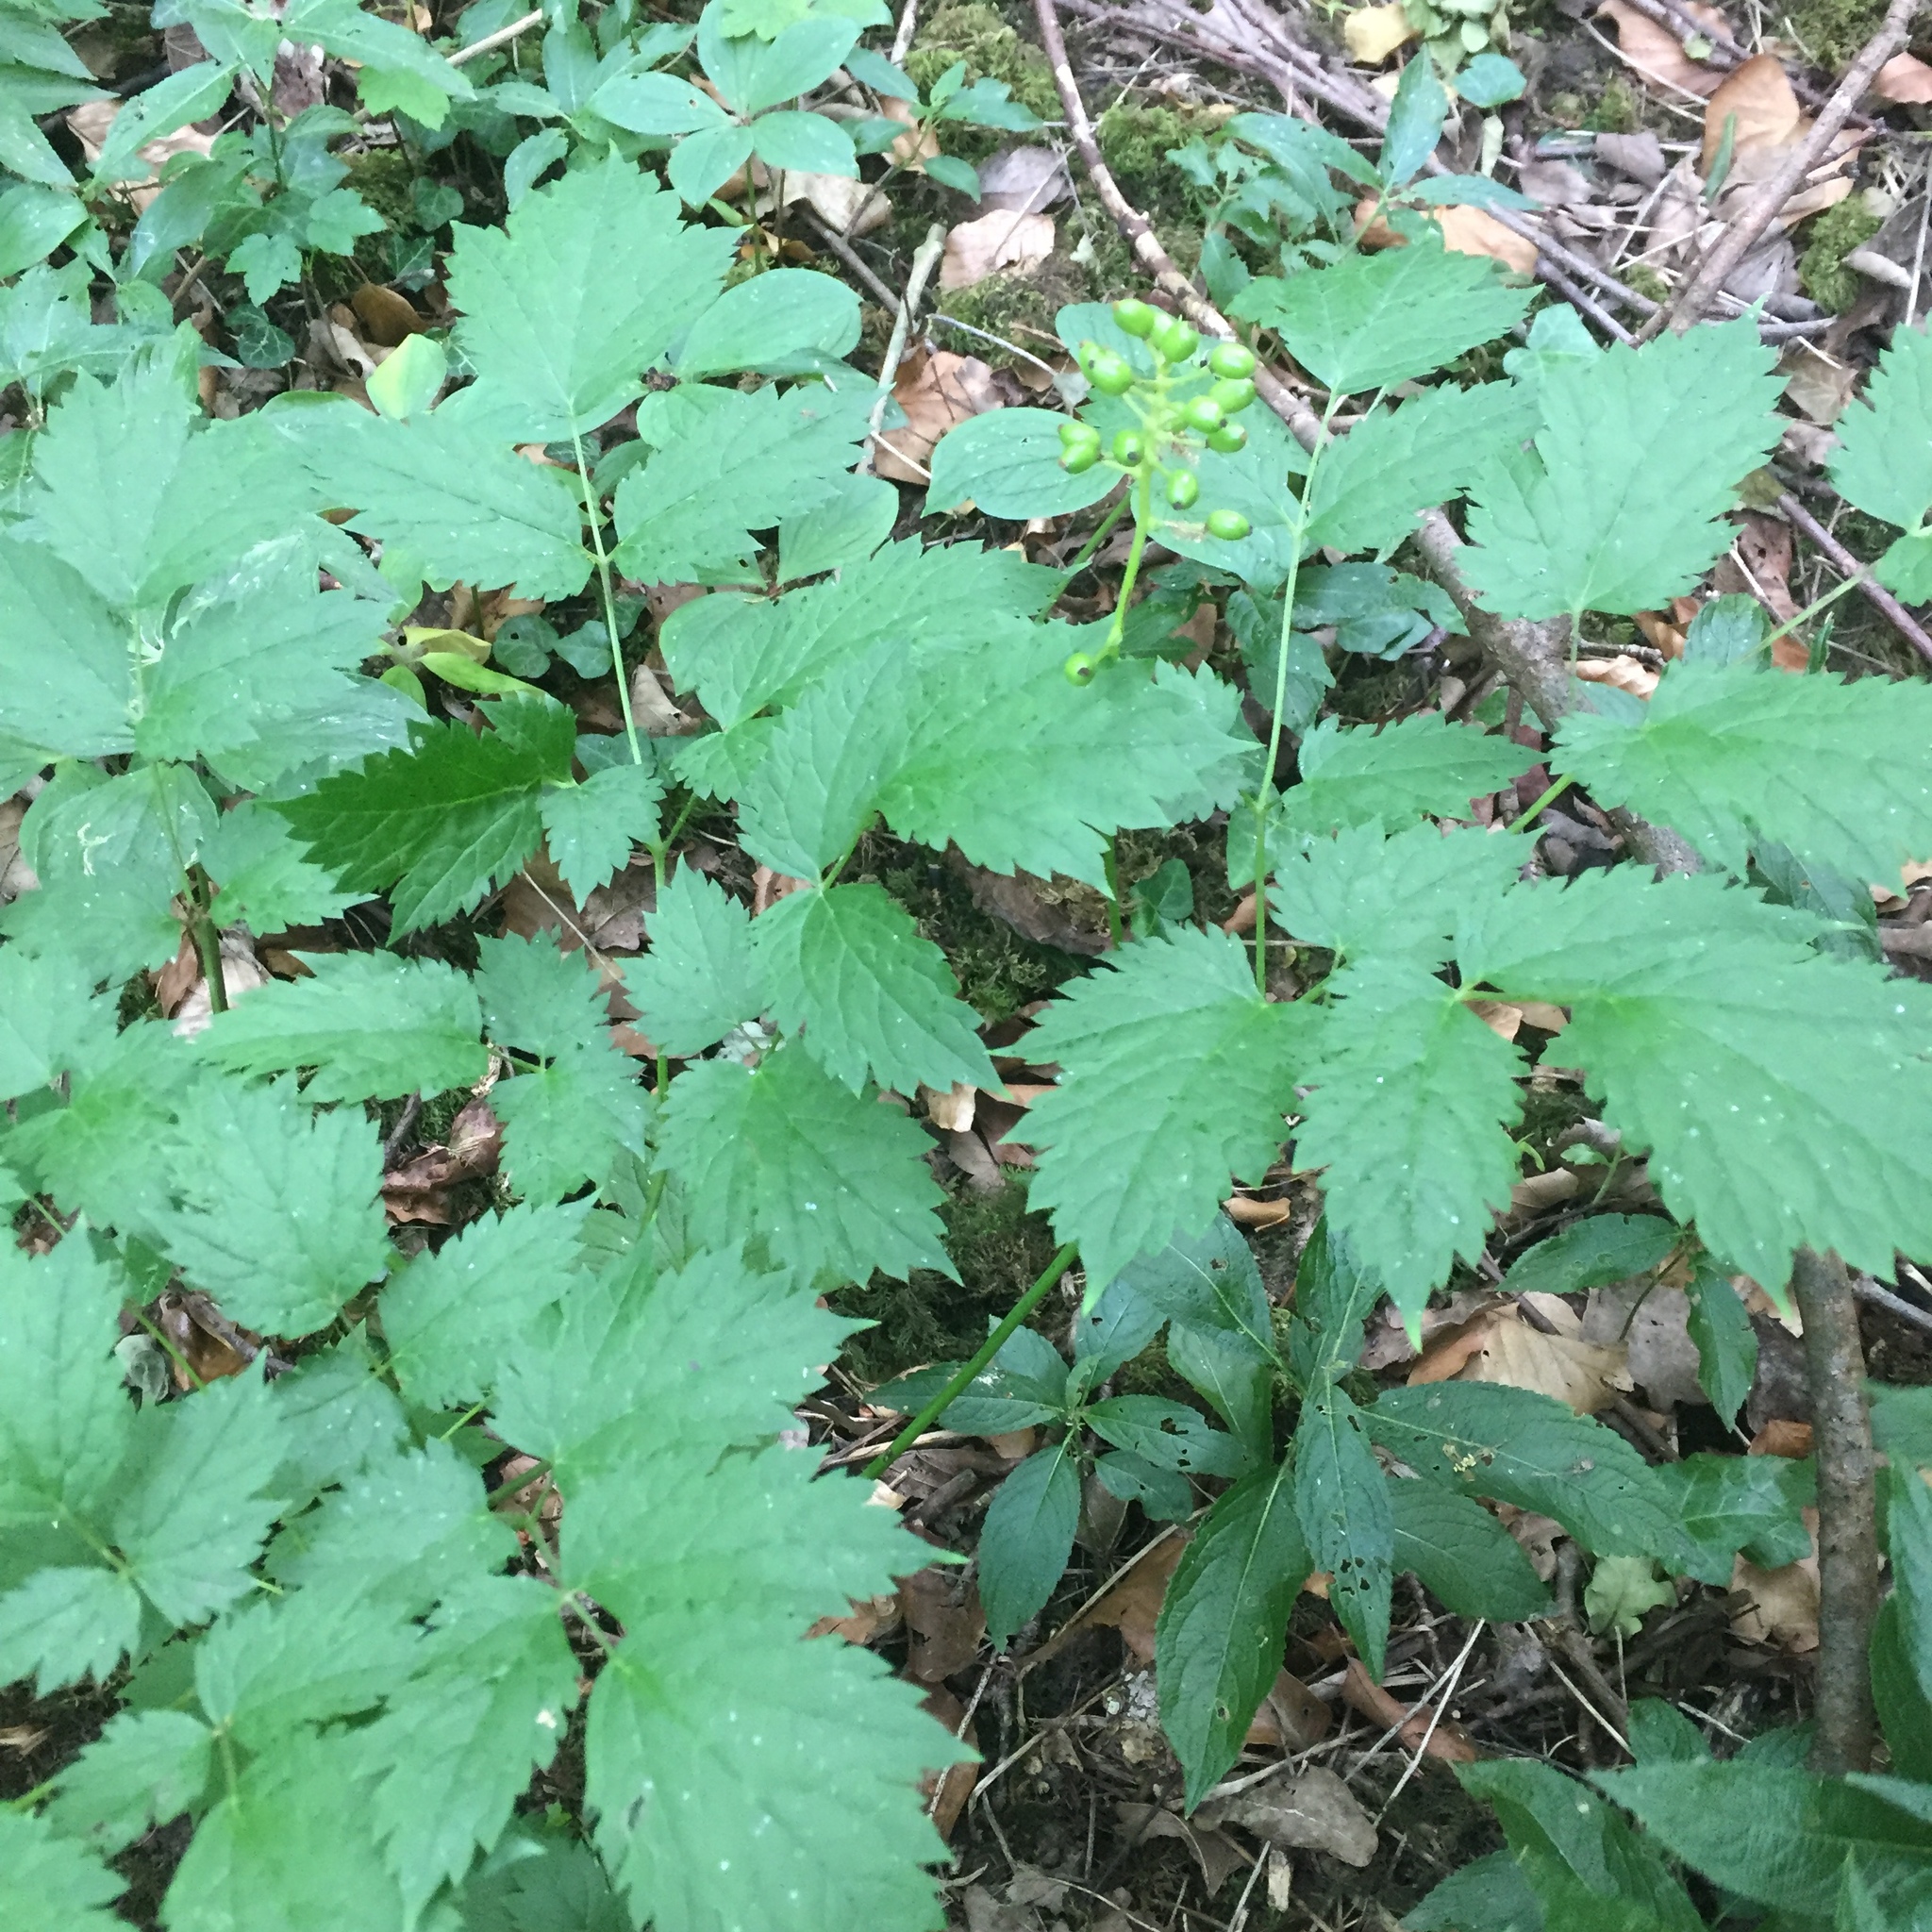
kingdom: Plantae
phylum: Tracheophyta
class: Magnoliopsida
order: Ranunculales
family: Ranunculaceae
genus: Actaea
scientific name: Actaea spicata
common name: Baneberry
